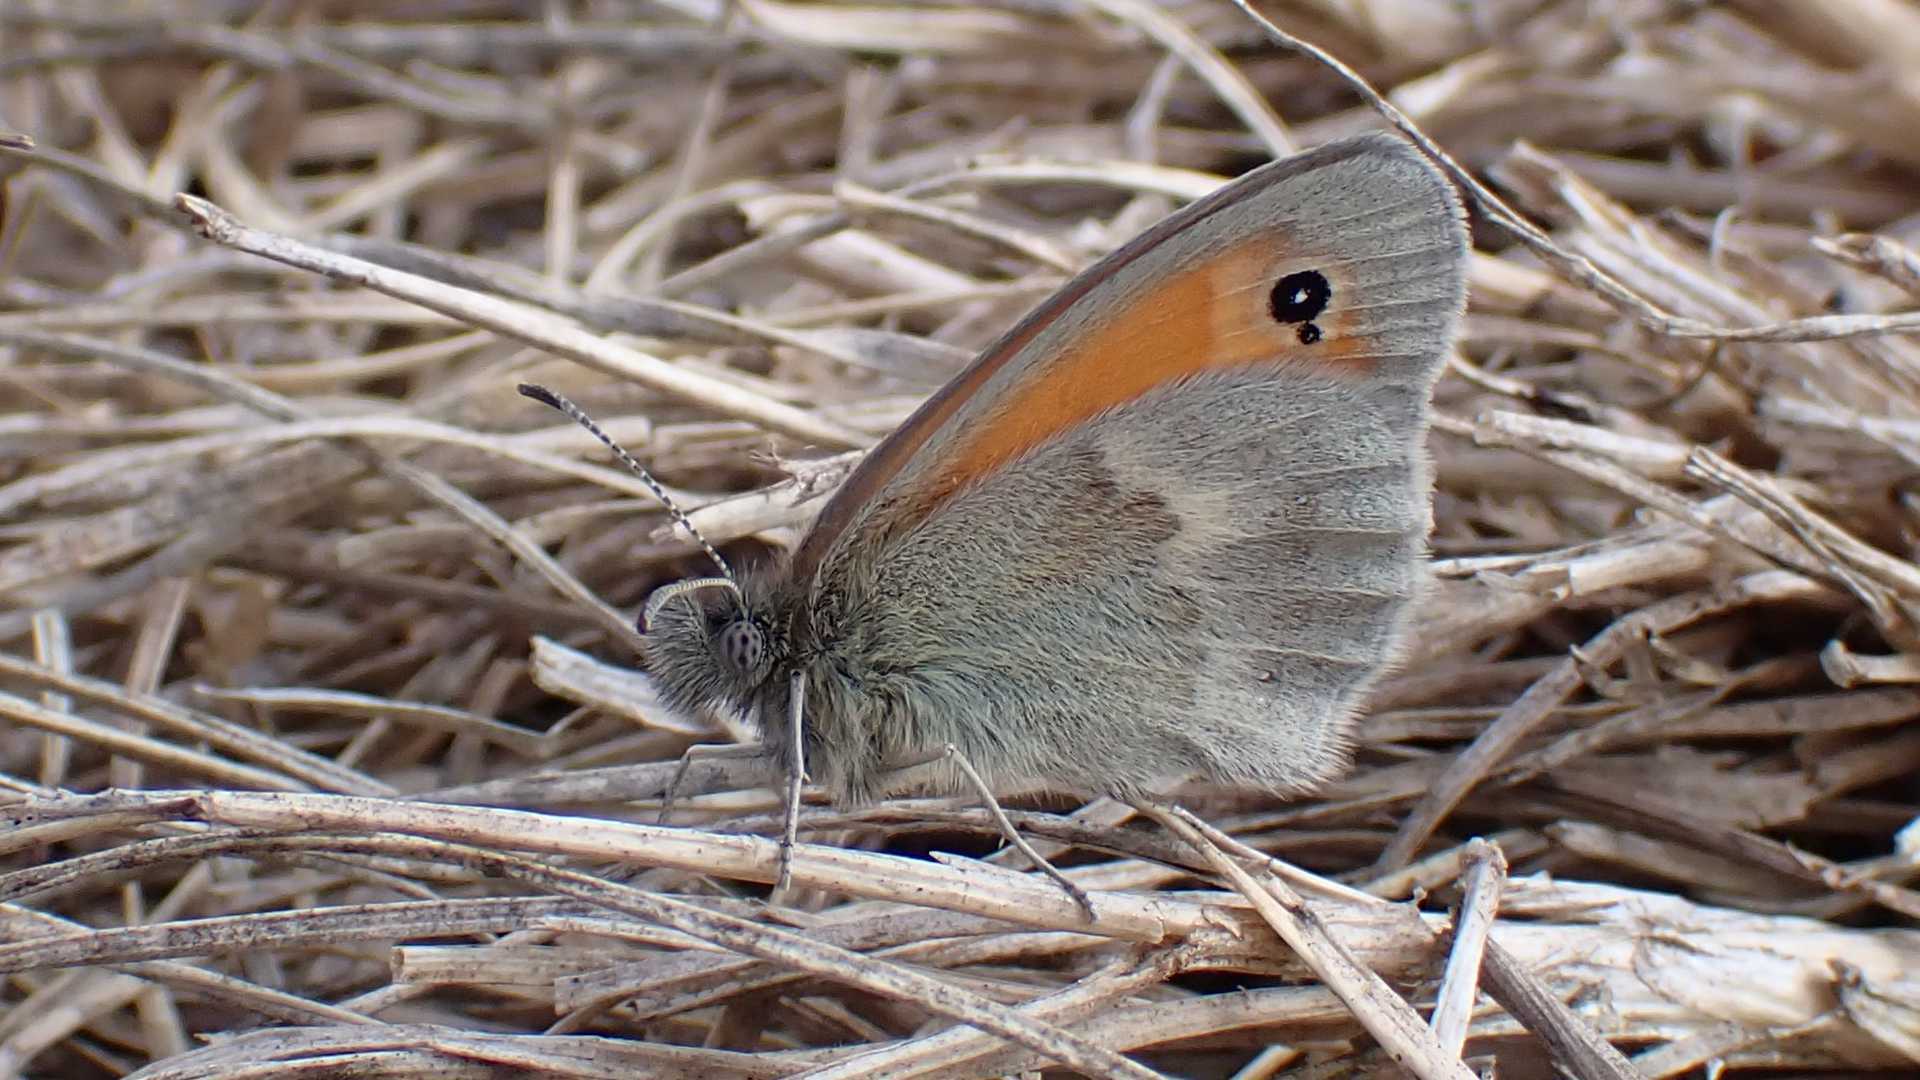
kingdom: Animalia
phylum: Arthropoda
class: Insecta
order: Lepidoptera
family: Nymphalidae
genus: Coenonympha
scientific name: Coenonympha pamphilus
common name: Small heath
